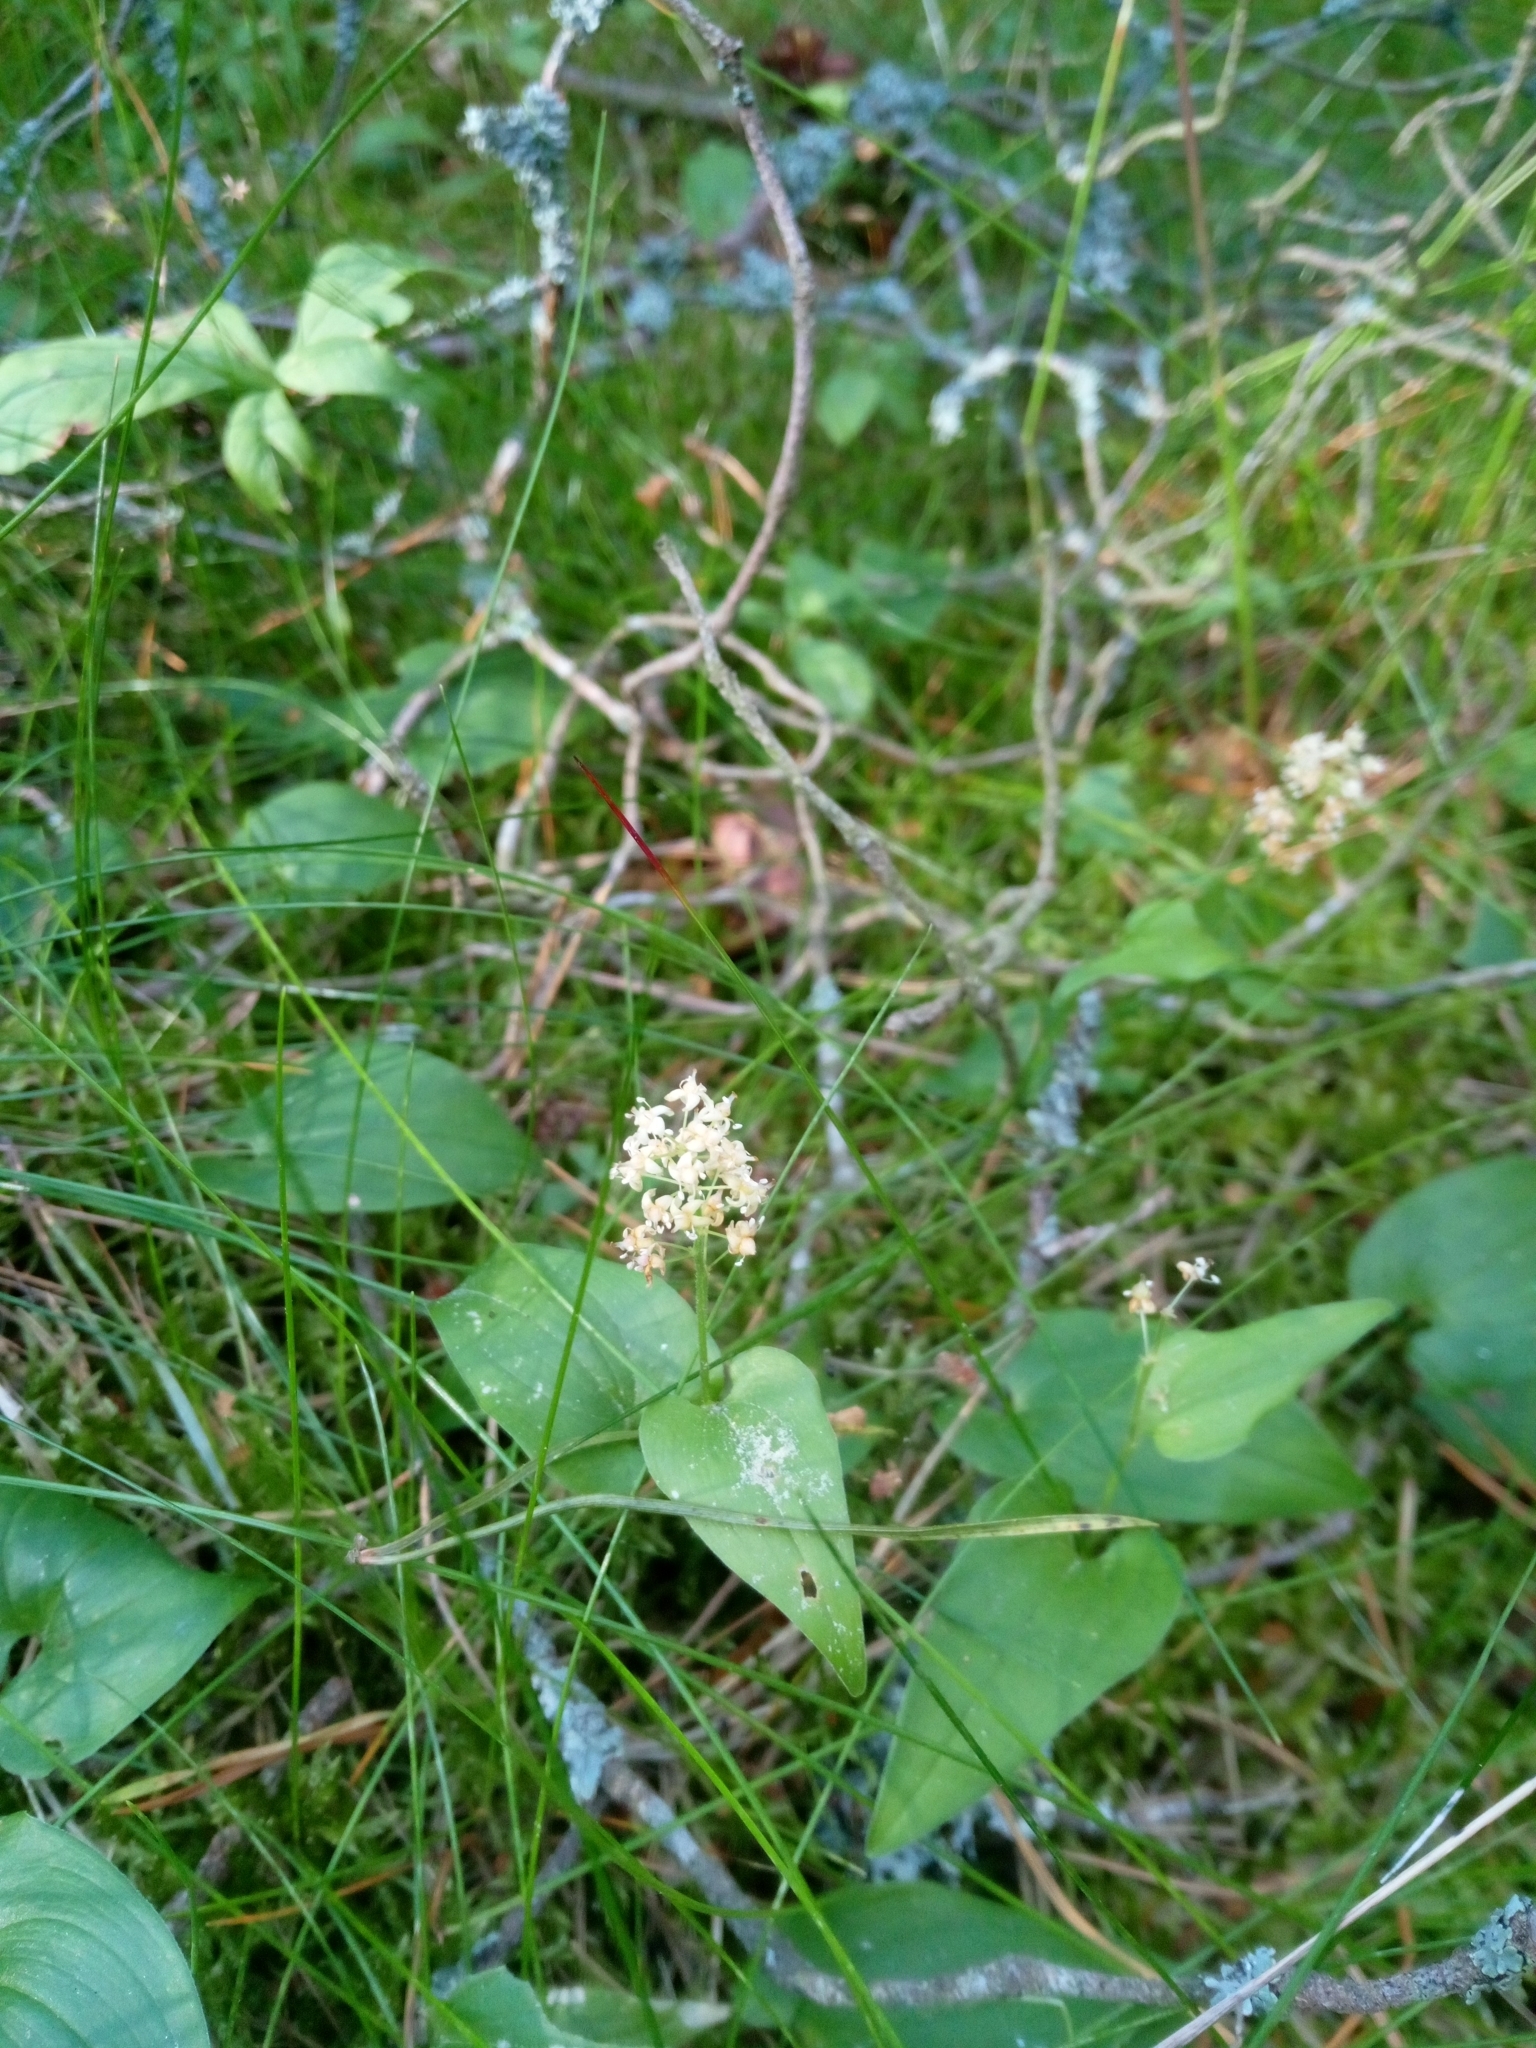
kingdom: Plantae
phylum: Tracheophyta
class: Liliopsida
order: Asparagales
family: Asparagaceae
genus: Maianthemum
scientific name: Maianthemum bifolium
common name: May lily
